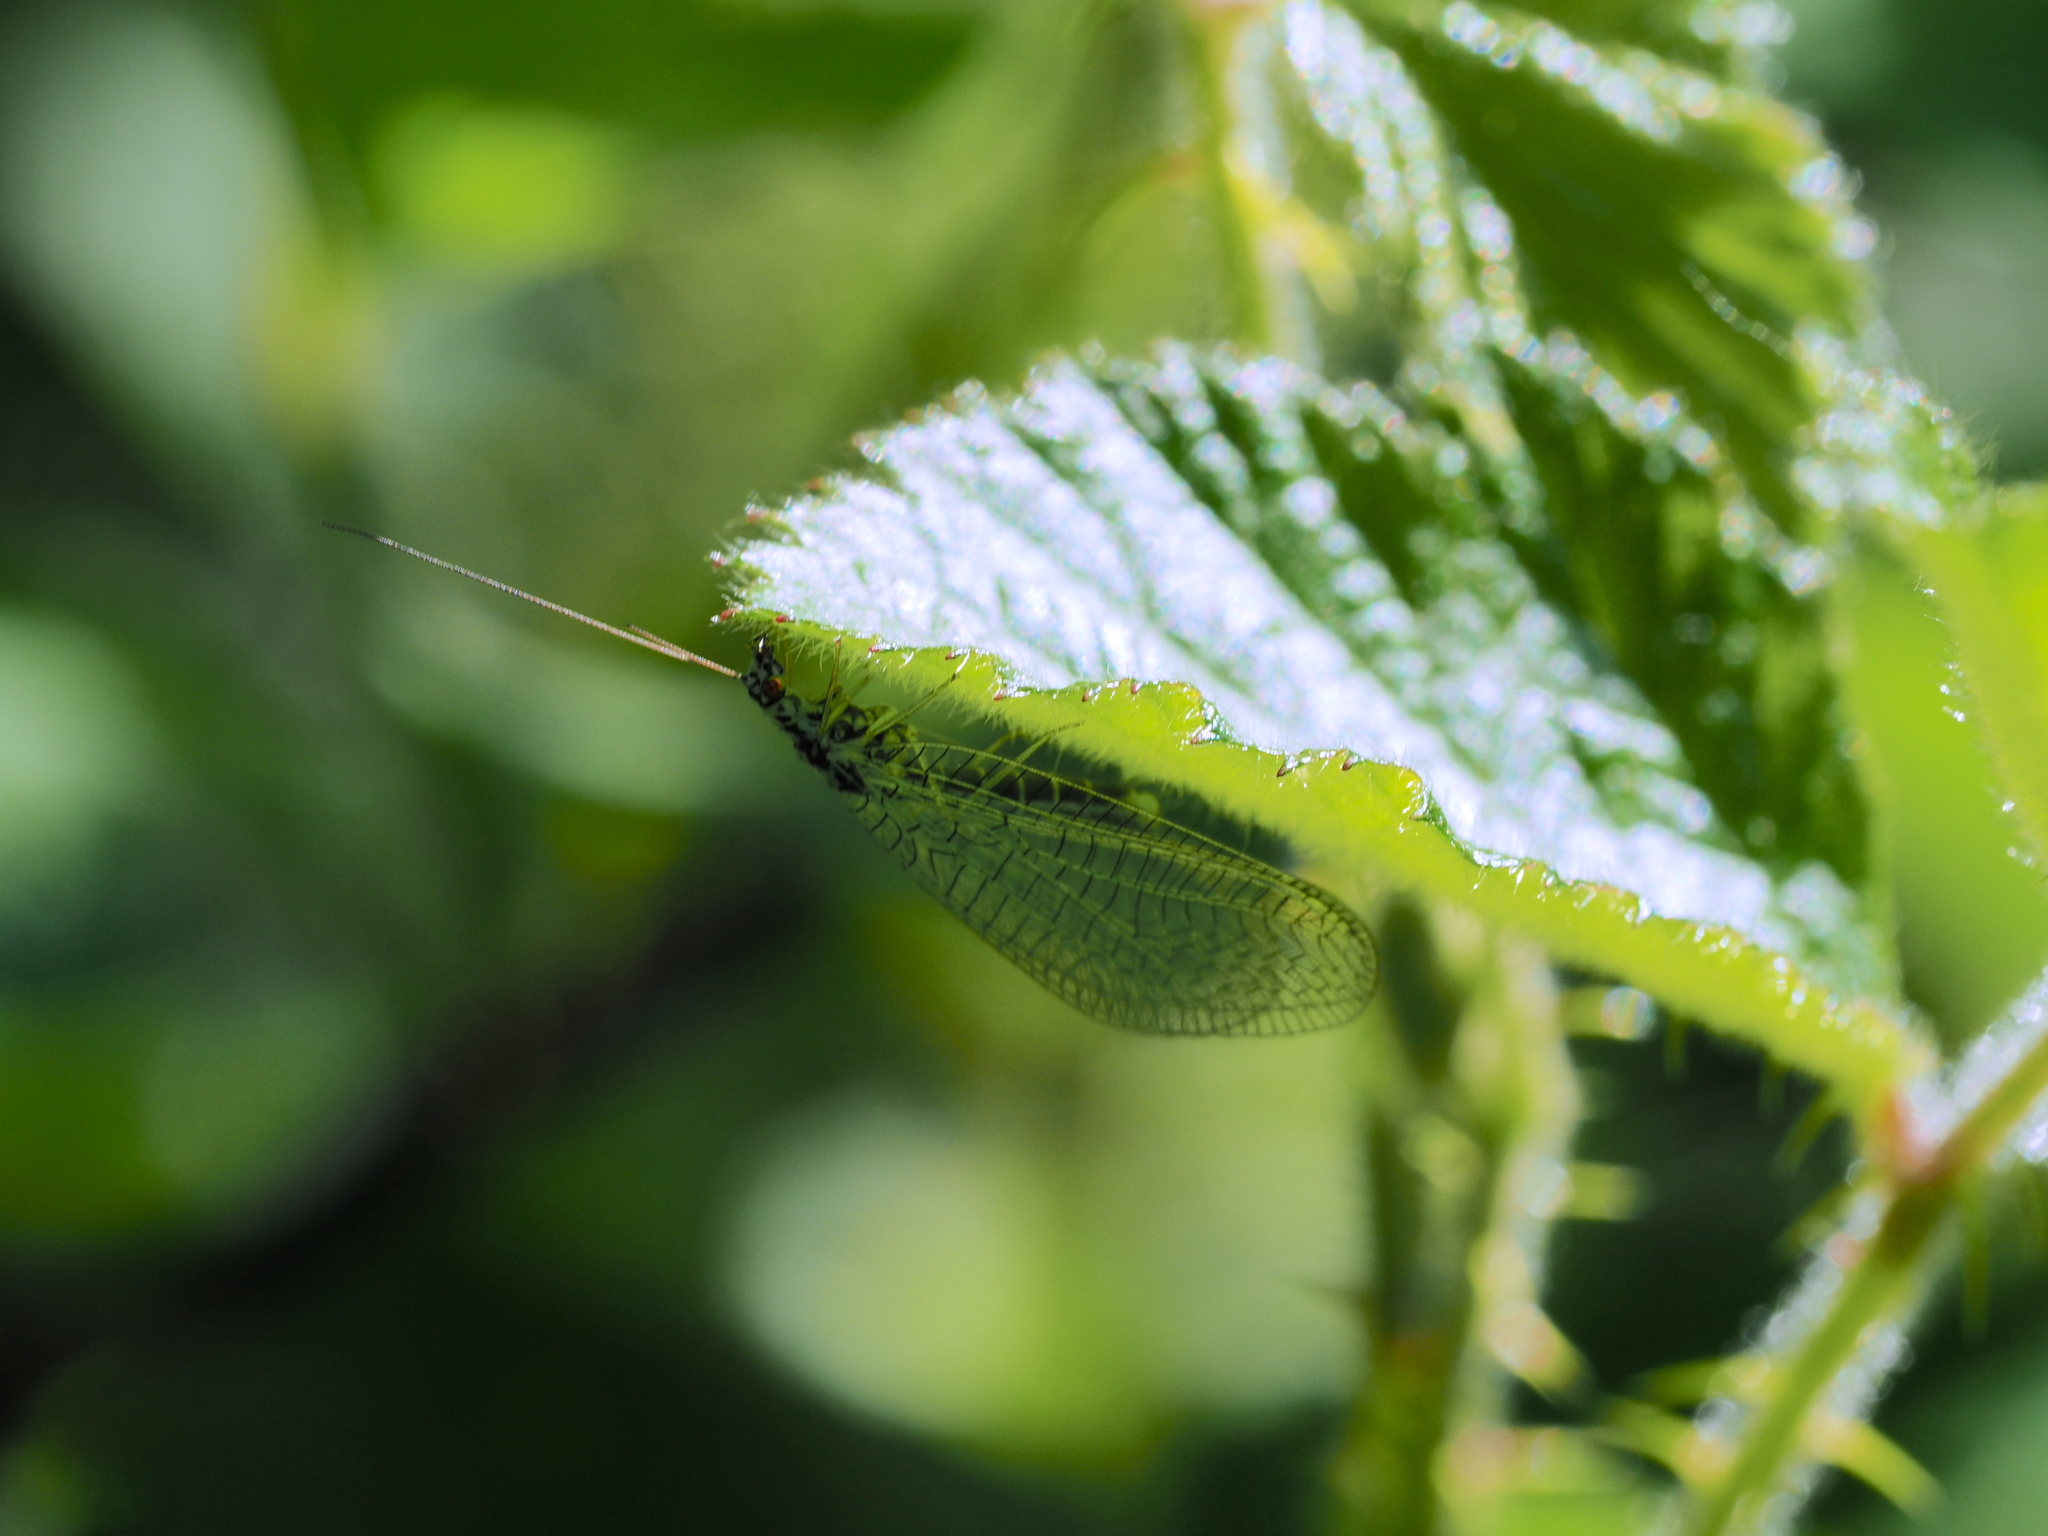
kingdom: Animalia
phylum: Arthropoda
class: Insecta
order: Neuroptera
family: Chrysopidae
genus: Chrysopa
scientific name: Chrysopa perla
